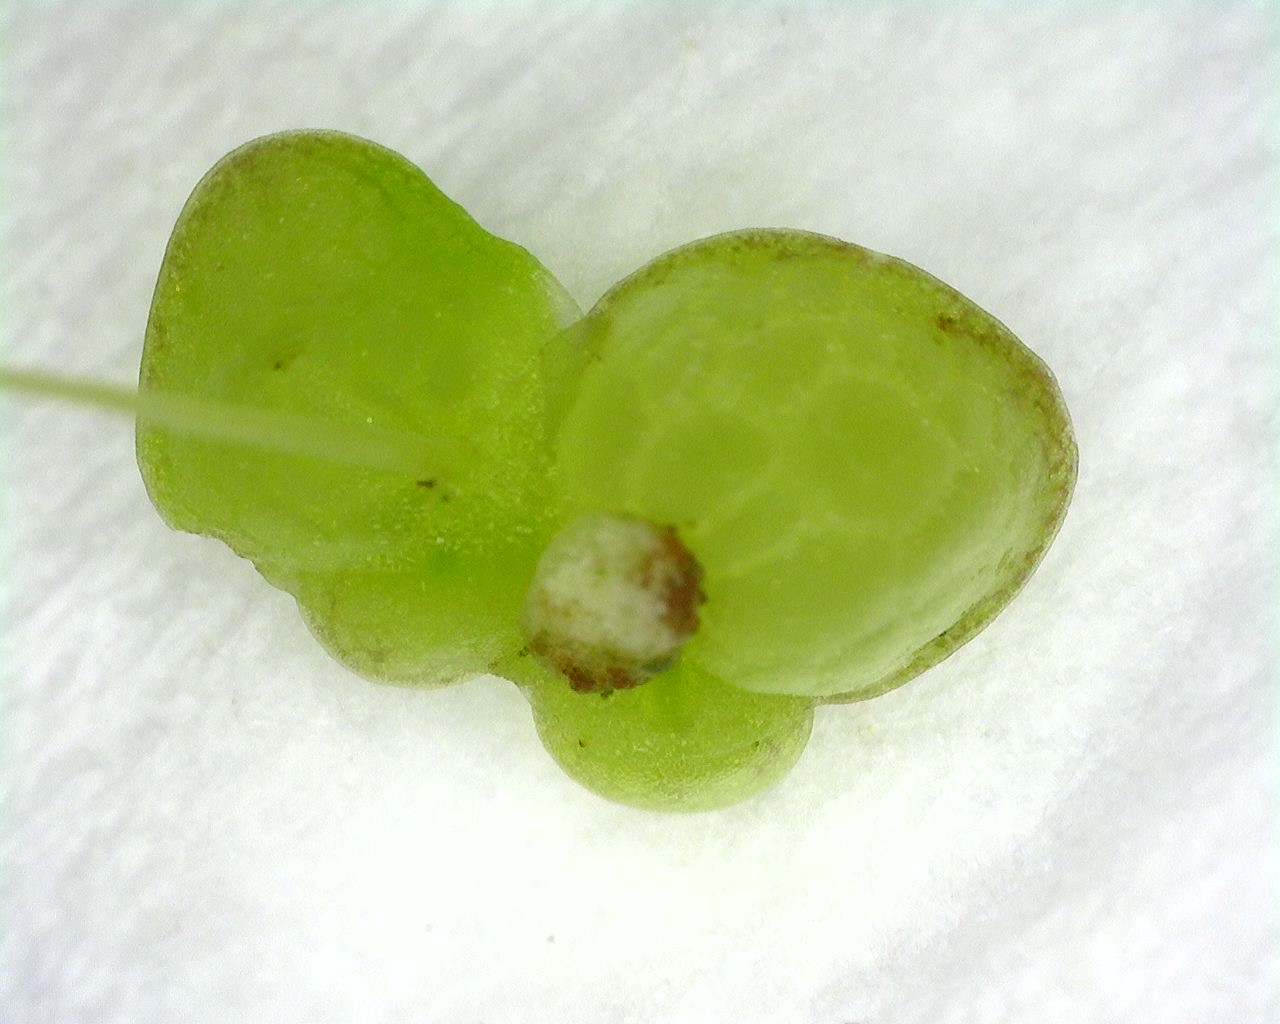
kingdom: Plantae
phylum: Tracheophyta
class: Liliopsida
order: Alismatales
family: Araceae
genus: Lemna
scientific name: Lemna gibba
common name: Fat duckweed
